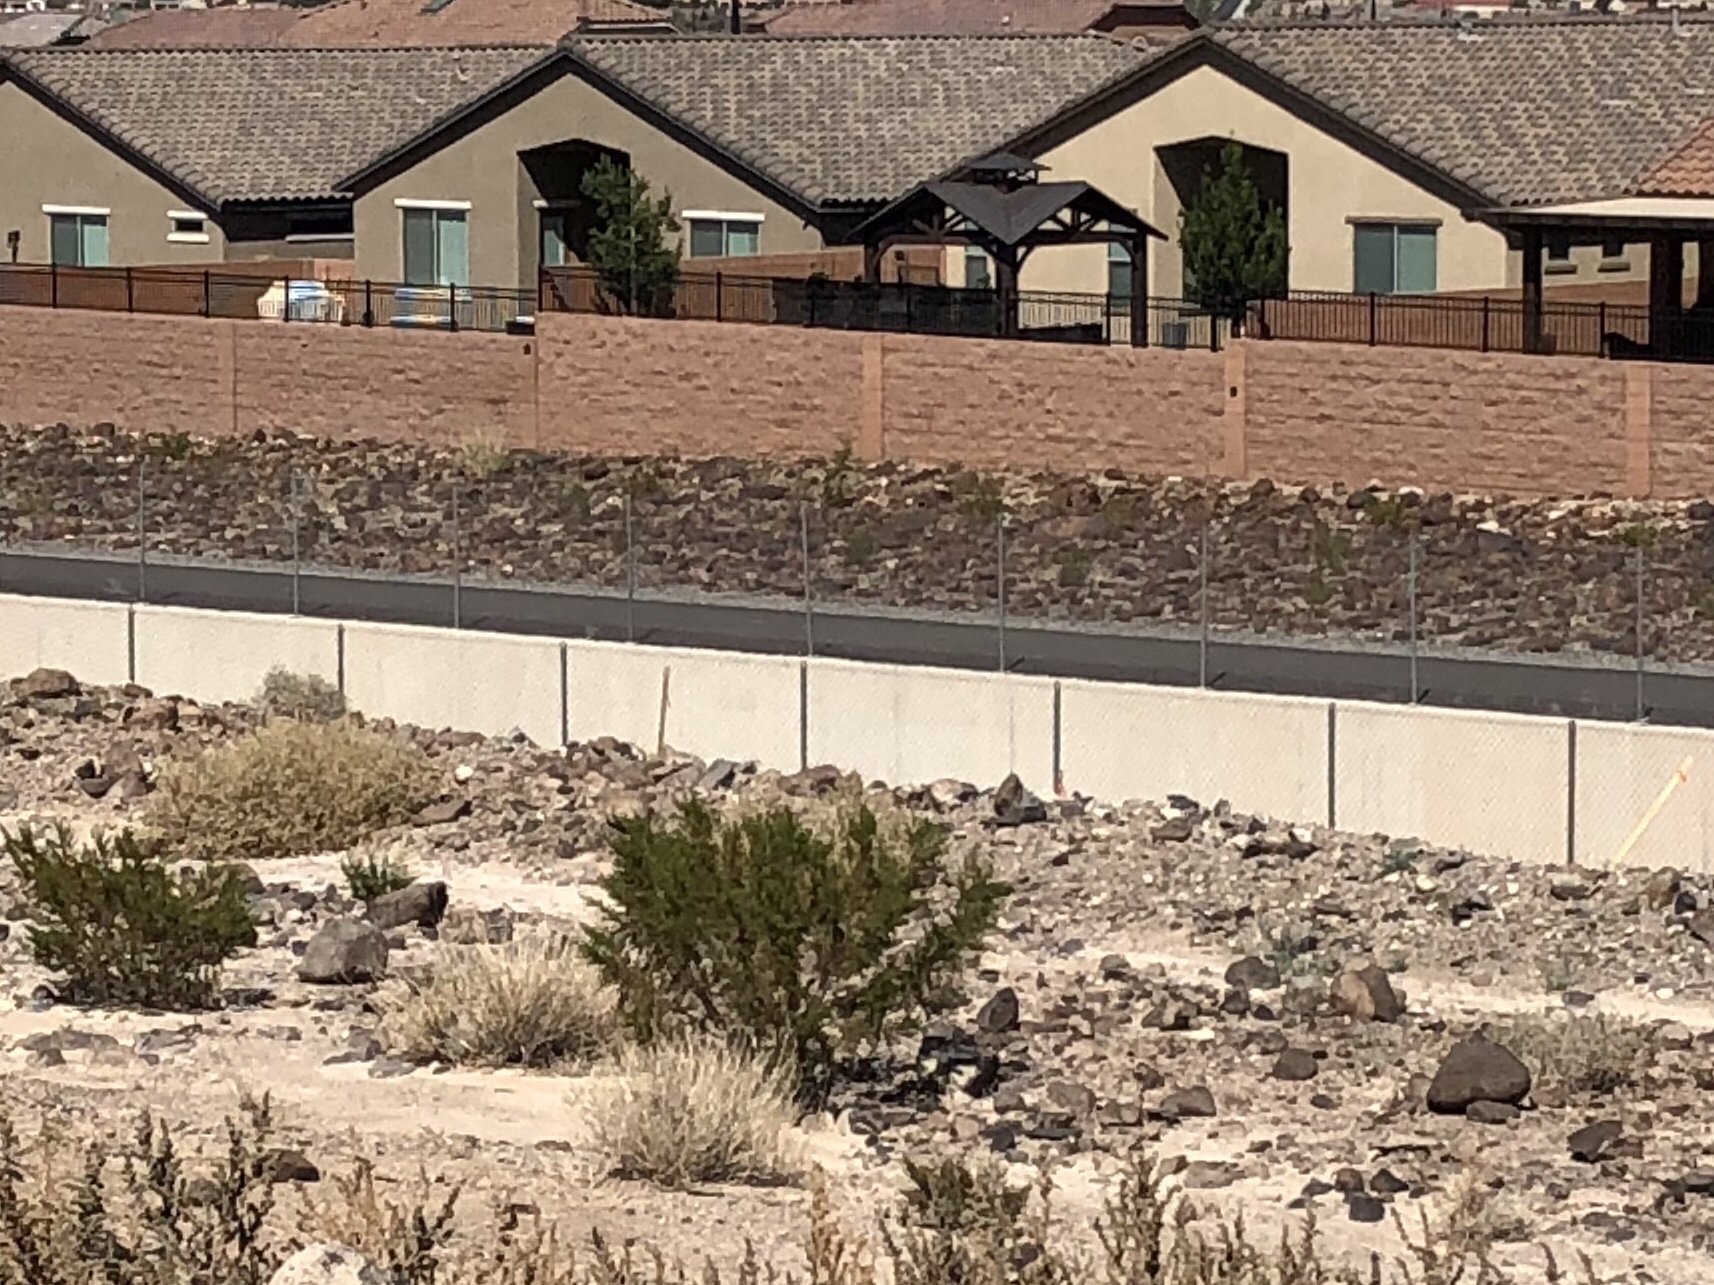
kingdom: Plantae
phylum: Tracheophyta
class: Magnoliopsida
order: Zygophyllales
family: Zygophyllaceae
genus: Larrea
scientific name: Larrea tridentata
